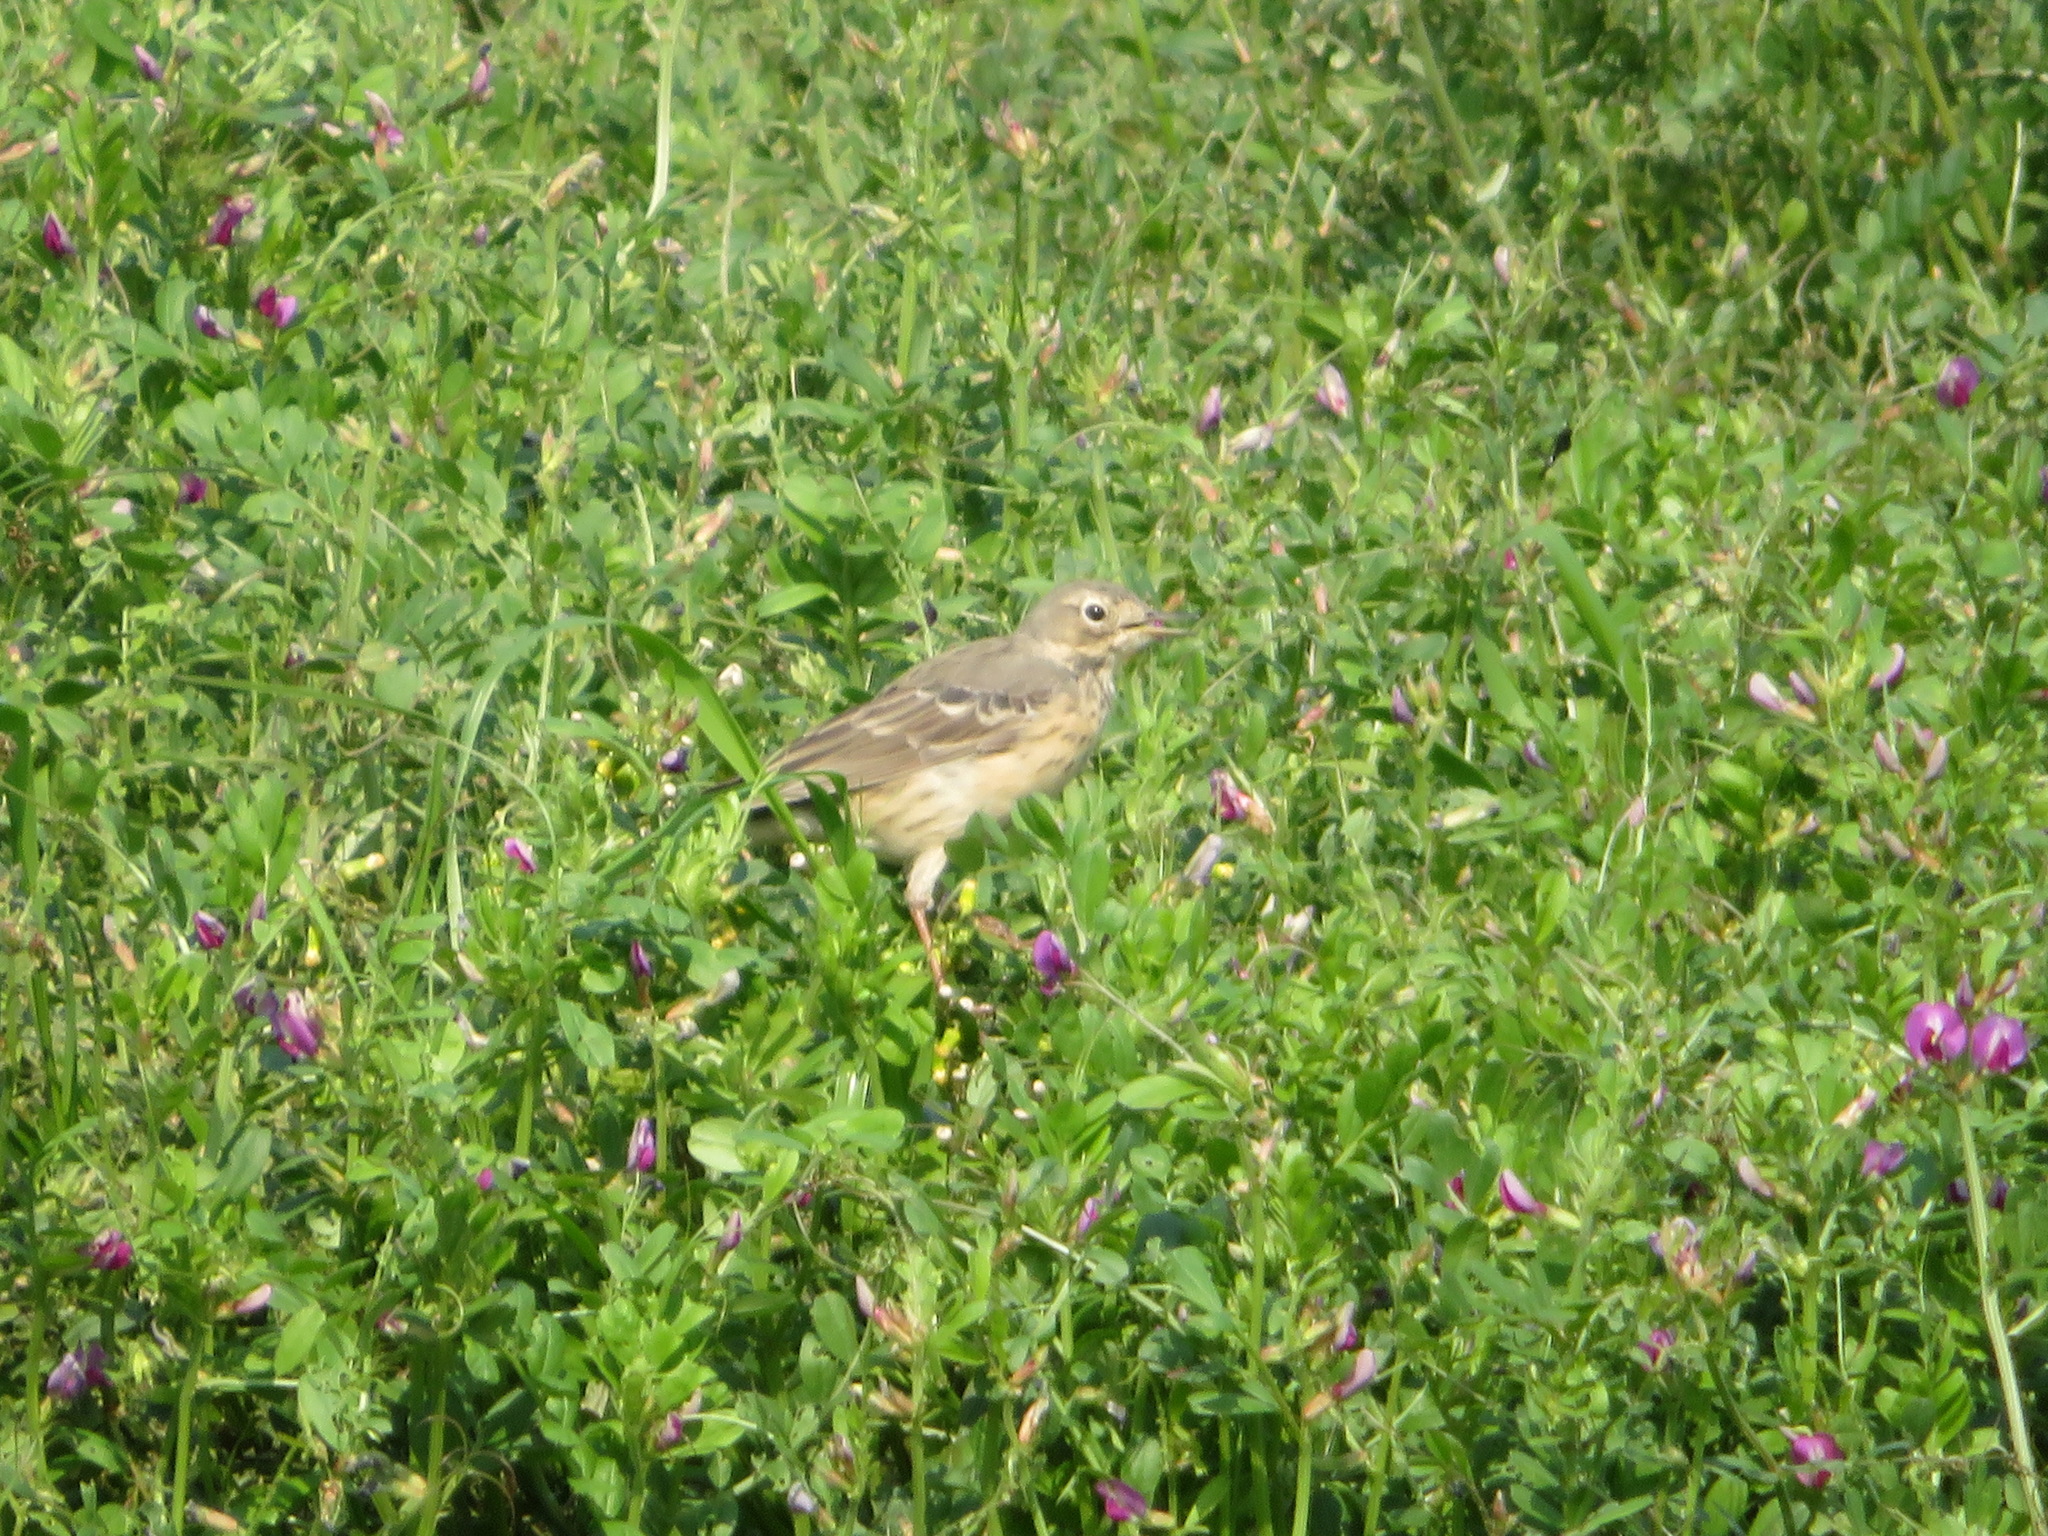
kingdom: Animalia
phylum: Chordata
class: Aves
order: Passeriformes
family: Motacillidae
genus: Anthus
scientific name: Anthus rubescens
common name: Buff-bellied pipit
